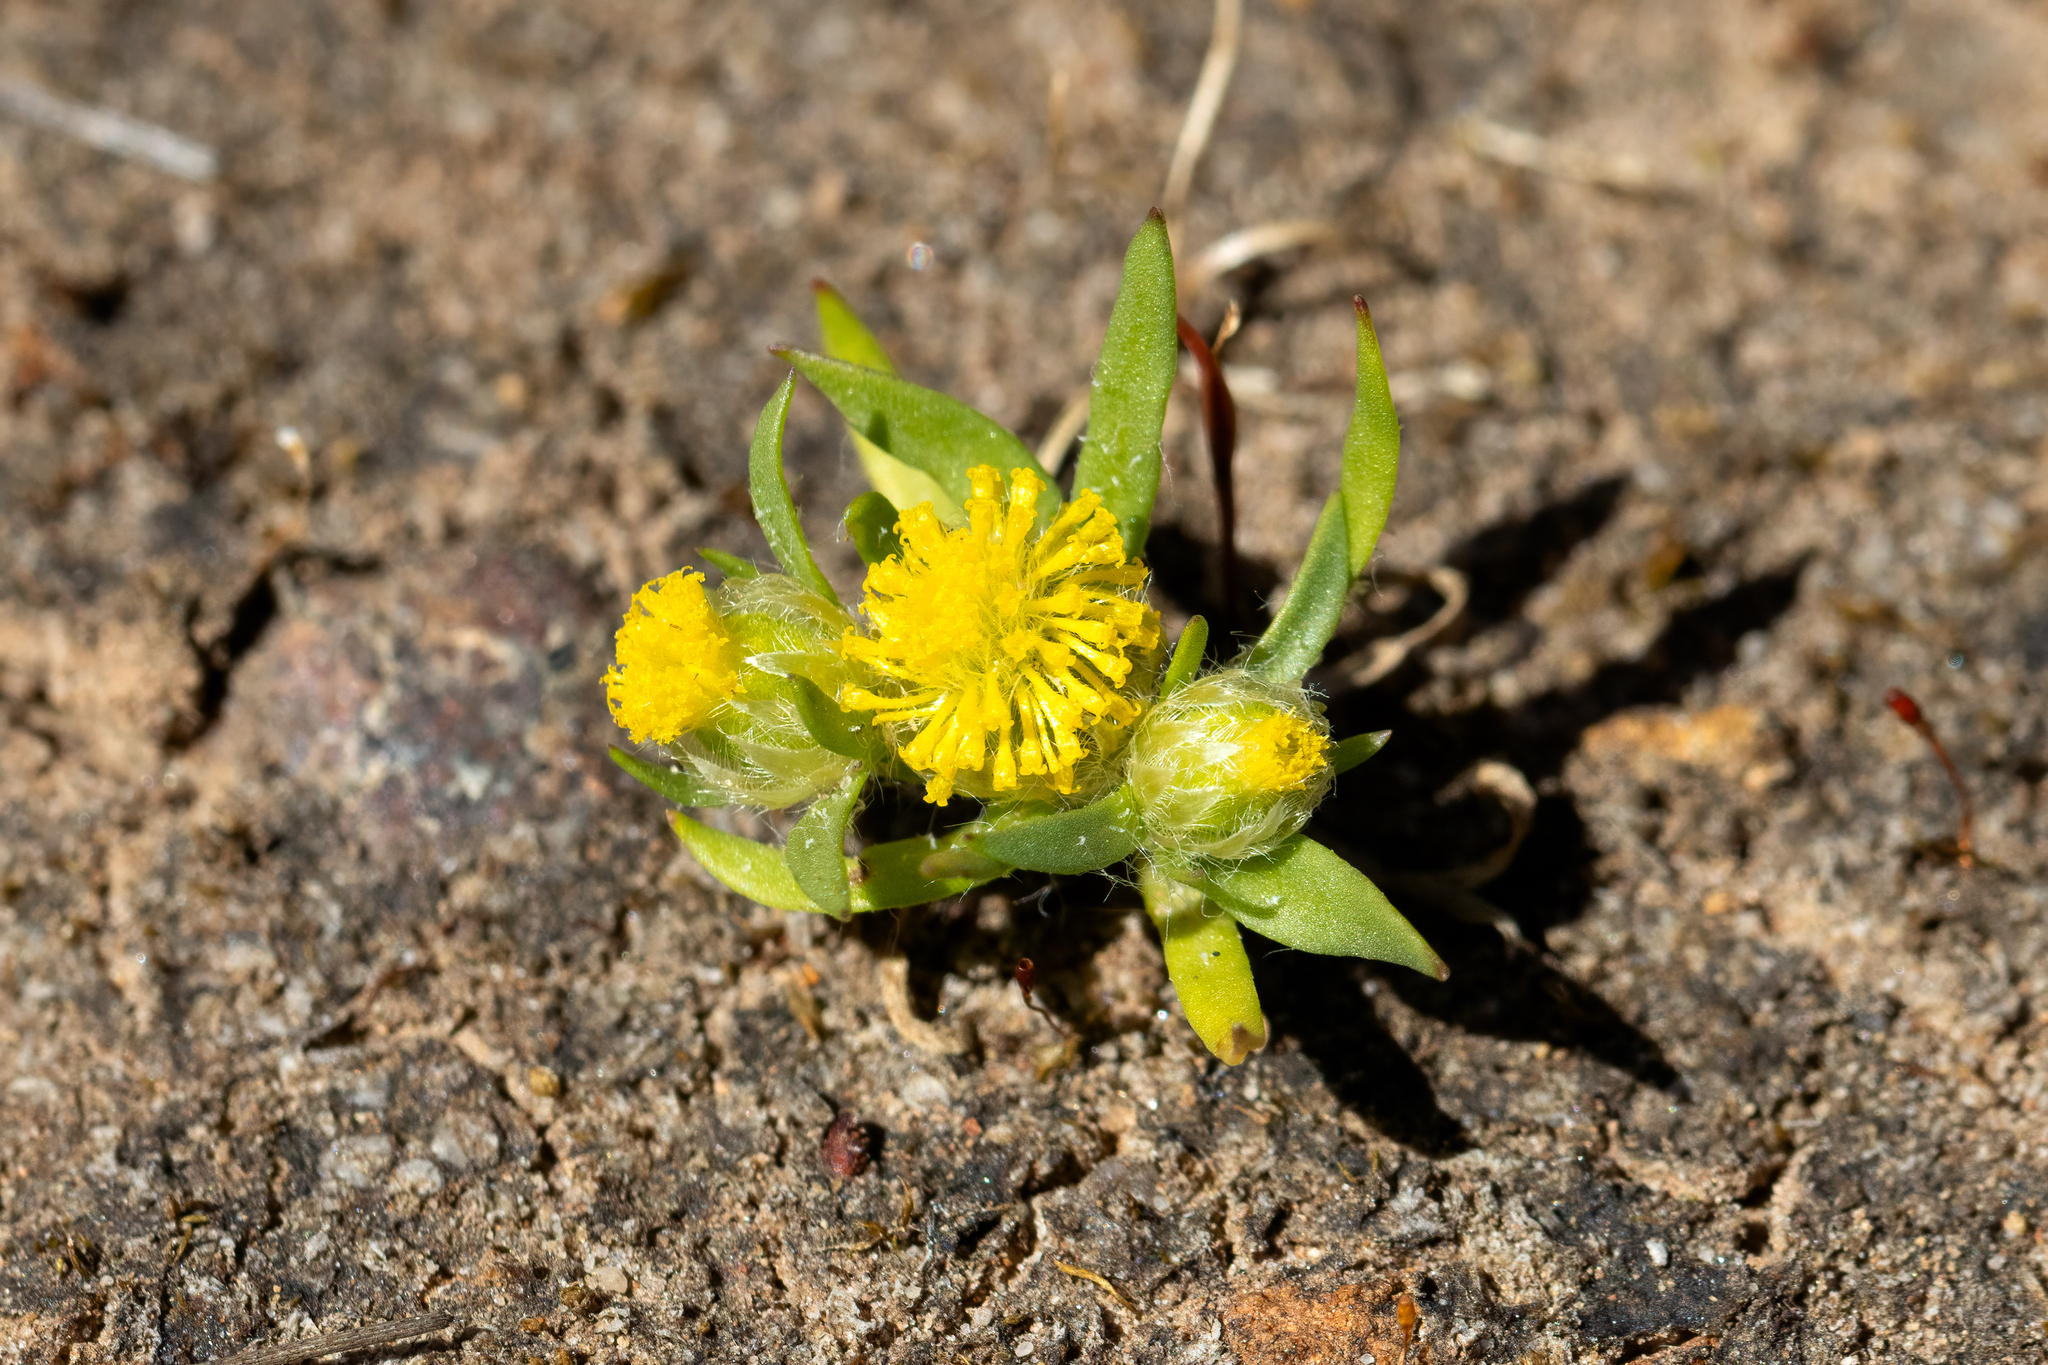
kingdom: Plantae
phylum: Tracheophyta
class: Magnoliopsida
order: Asterales
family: Asteraceae
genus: Triptilodiscus
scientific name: Triptilodiscus pygmaeus
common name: Common sunray
